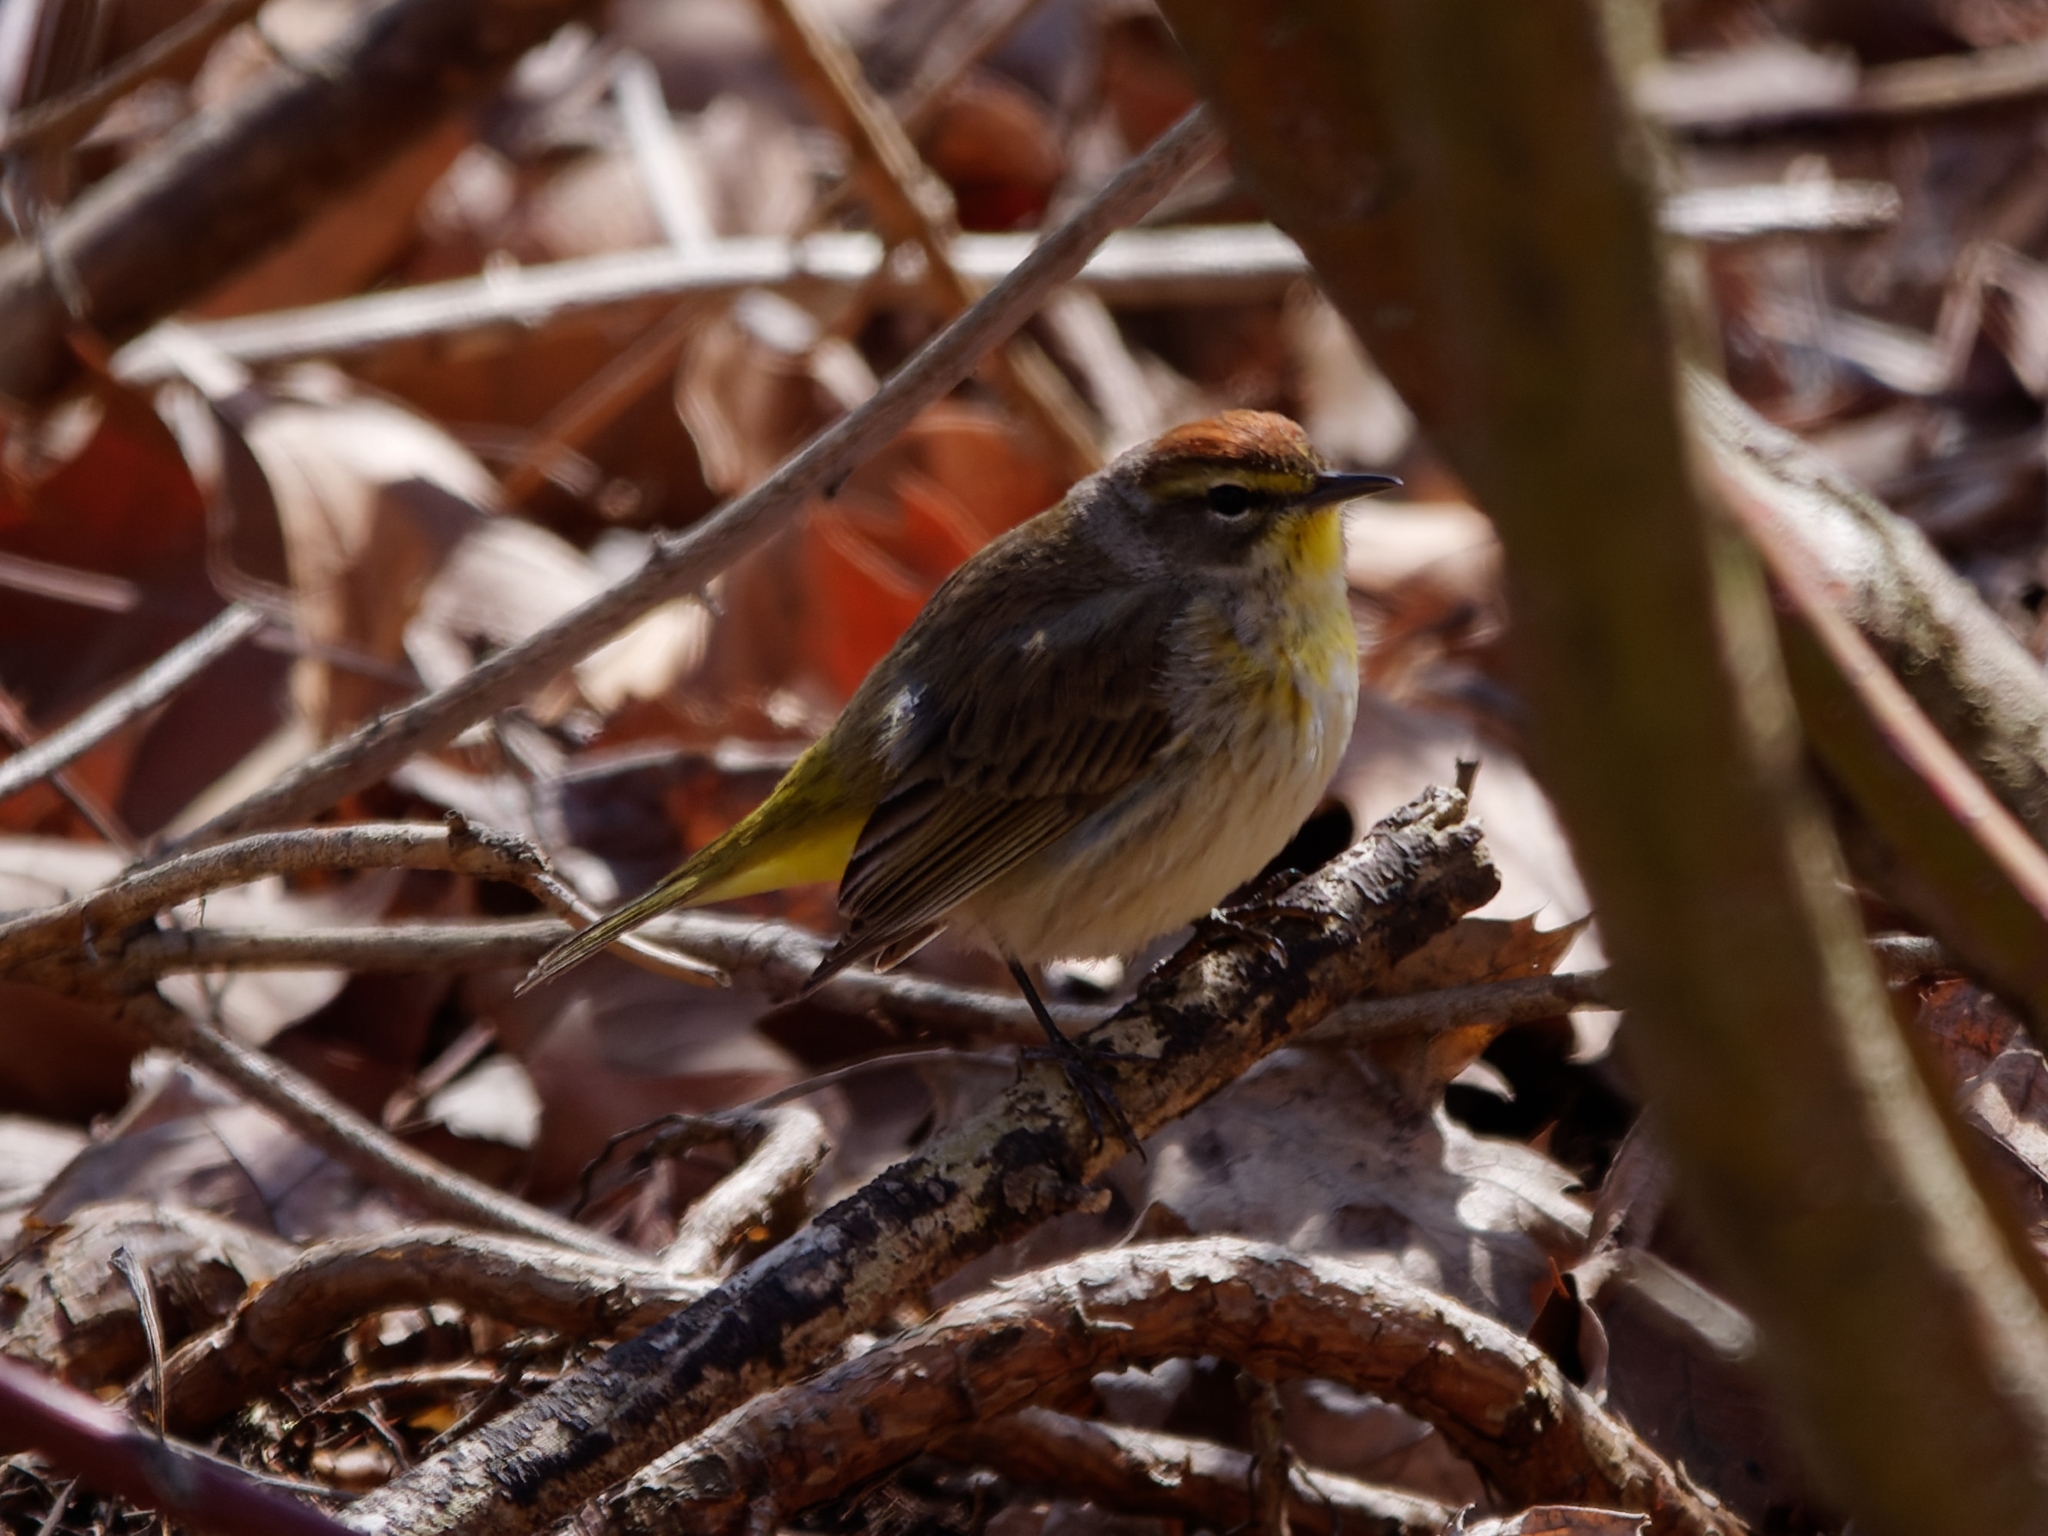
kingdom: Animalia
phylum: Chordata
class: Aves
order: Passeriformes
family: Parulidae
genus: Setophaga
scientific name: Setophaga palmarum
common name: Palm warbler
